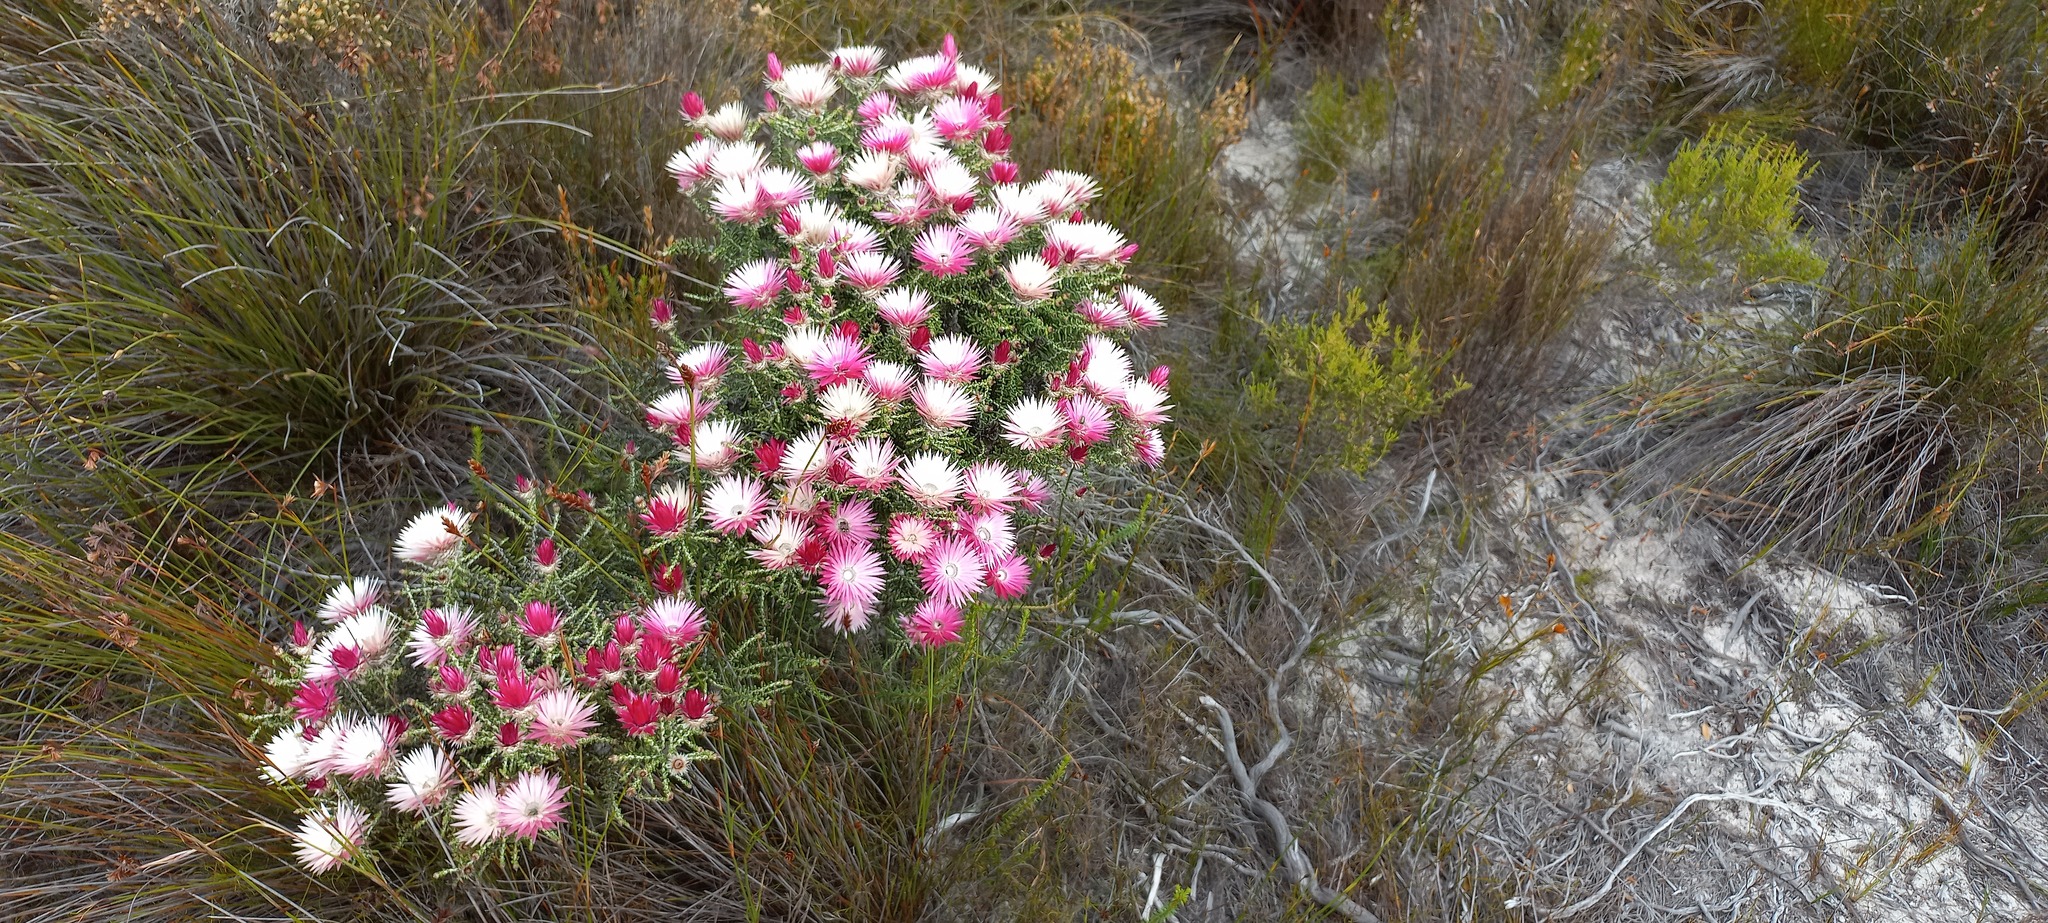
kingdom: Plantae
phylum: Tracheophyta
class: Magnoliopsida
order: Asterales
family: Asteraceae
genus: Phaenocoma
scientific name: Phaenocoma prolifera
